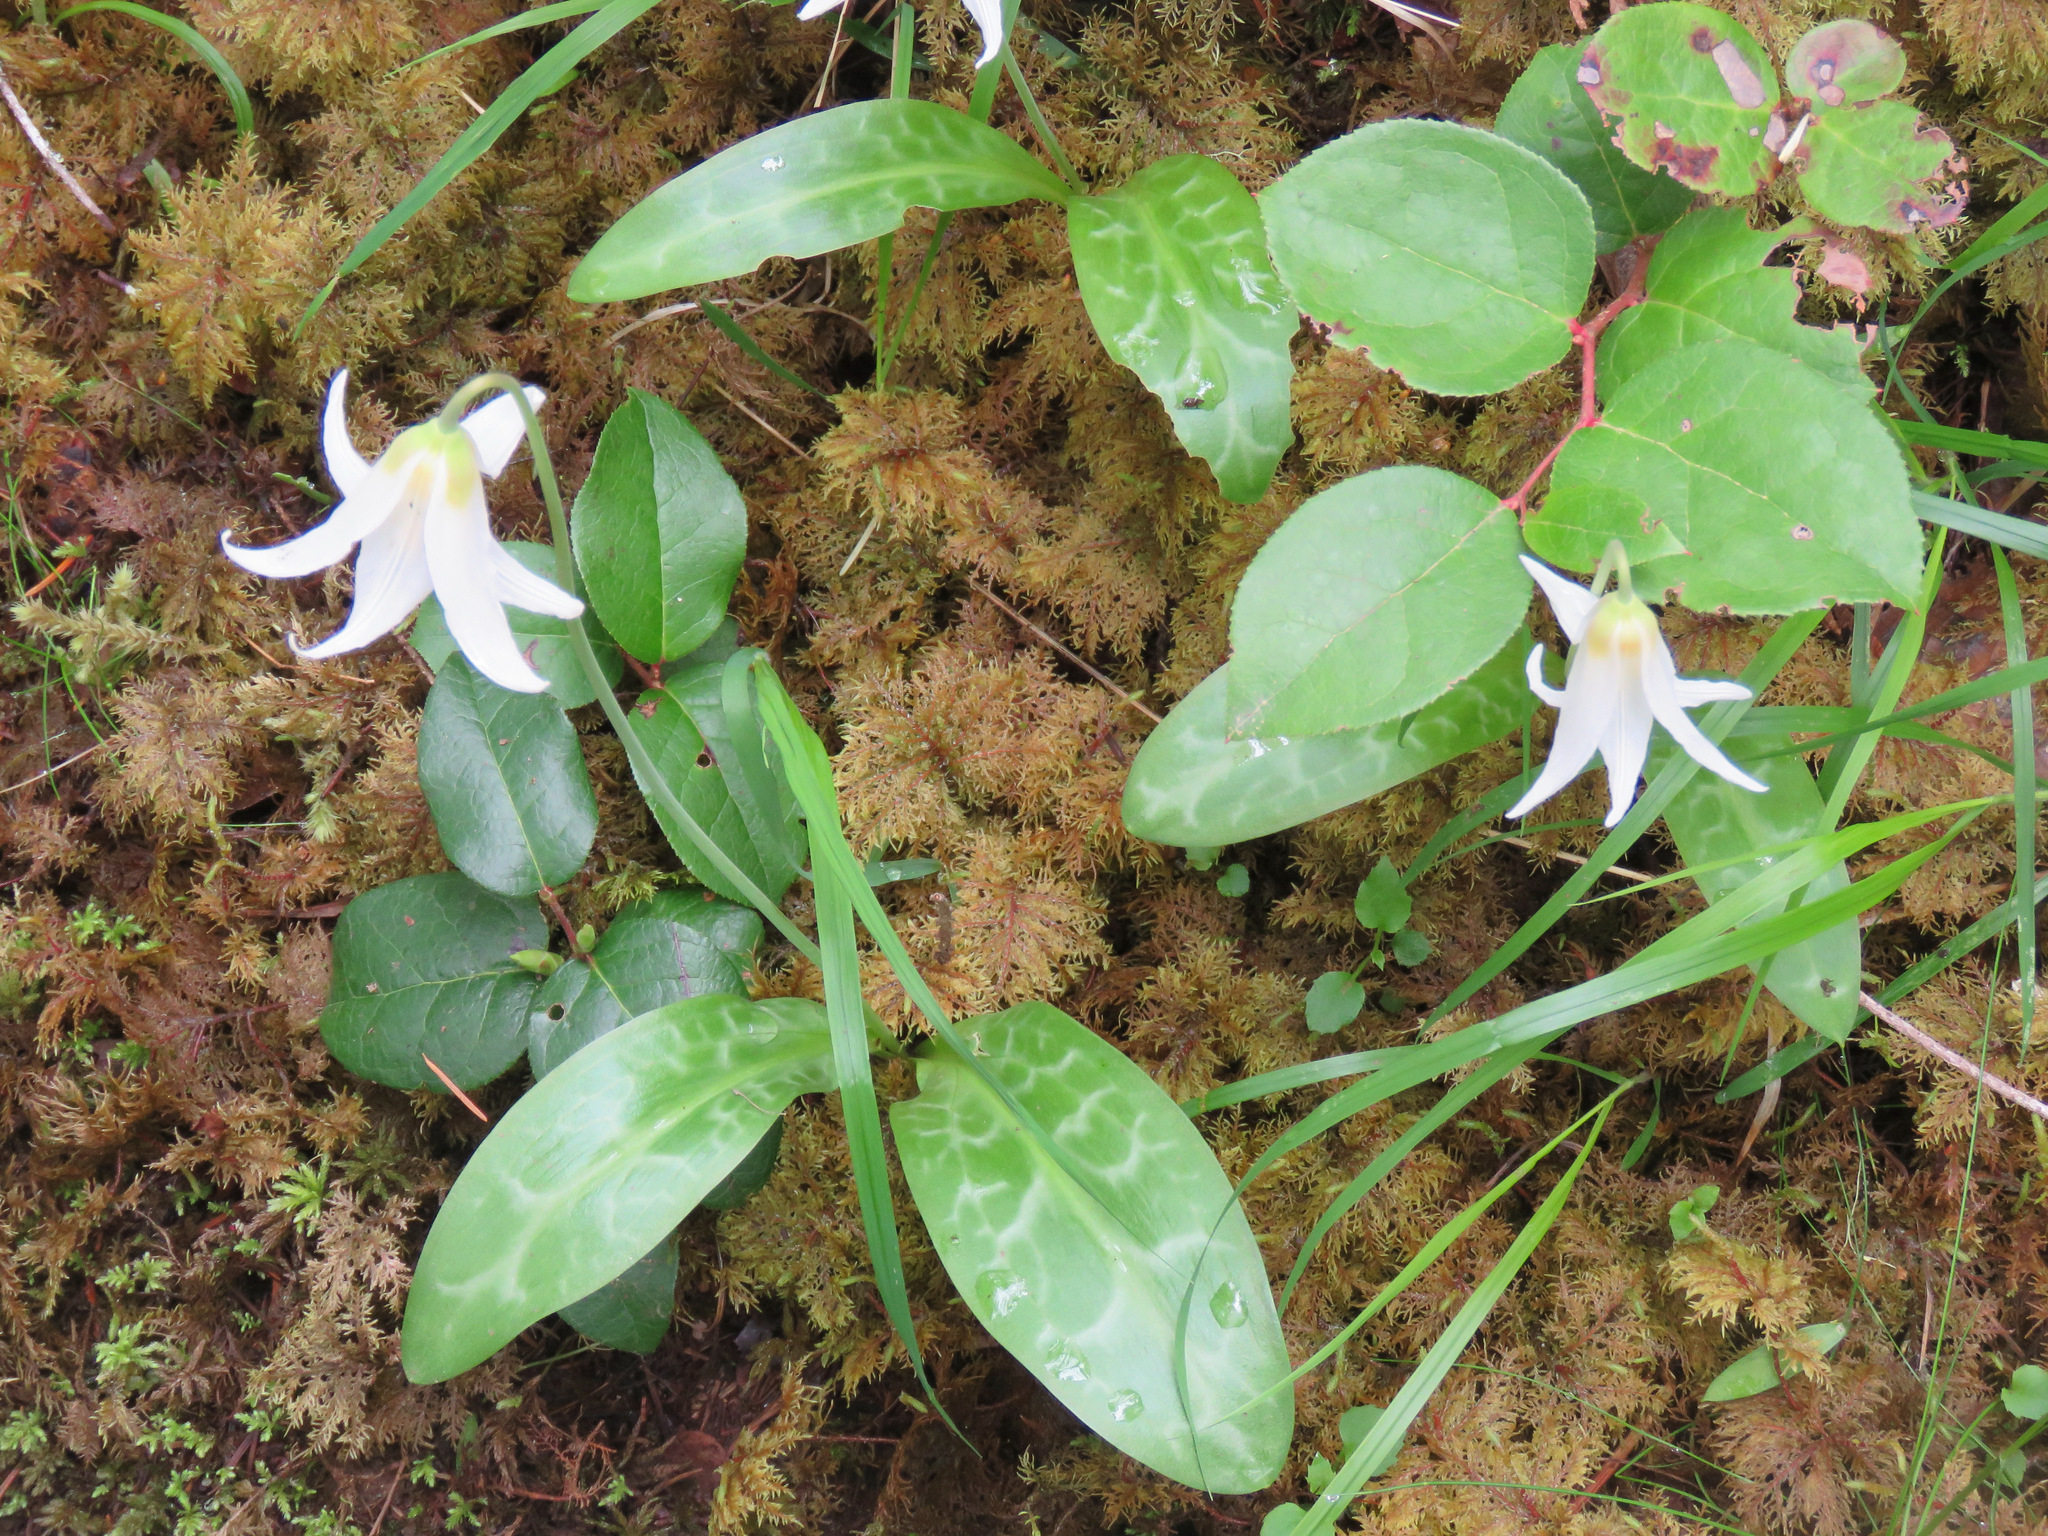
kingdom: Plantae
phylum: Tracheophyta
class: Liliopsida
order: Liliales
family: Liliaceae
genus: Erythronium
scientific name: Erythronium oregonum
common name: Giant adder's-tongue
